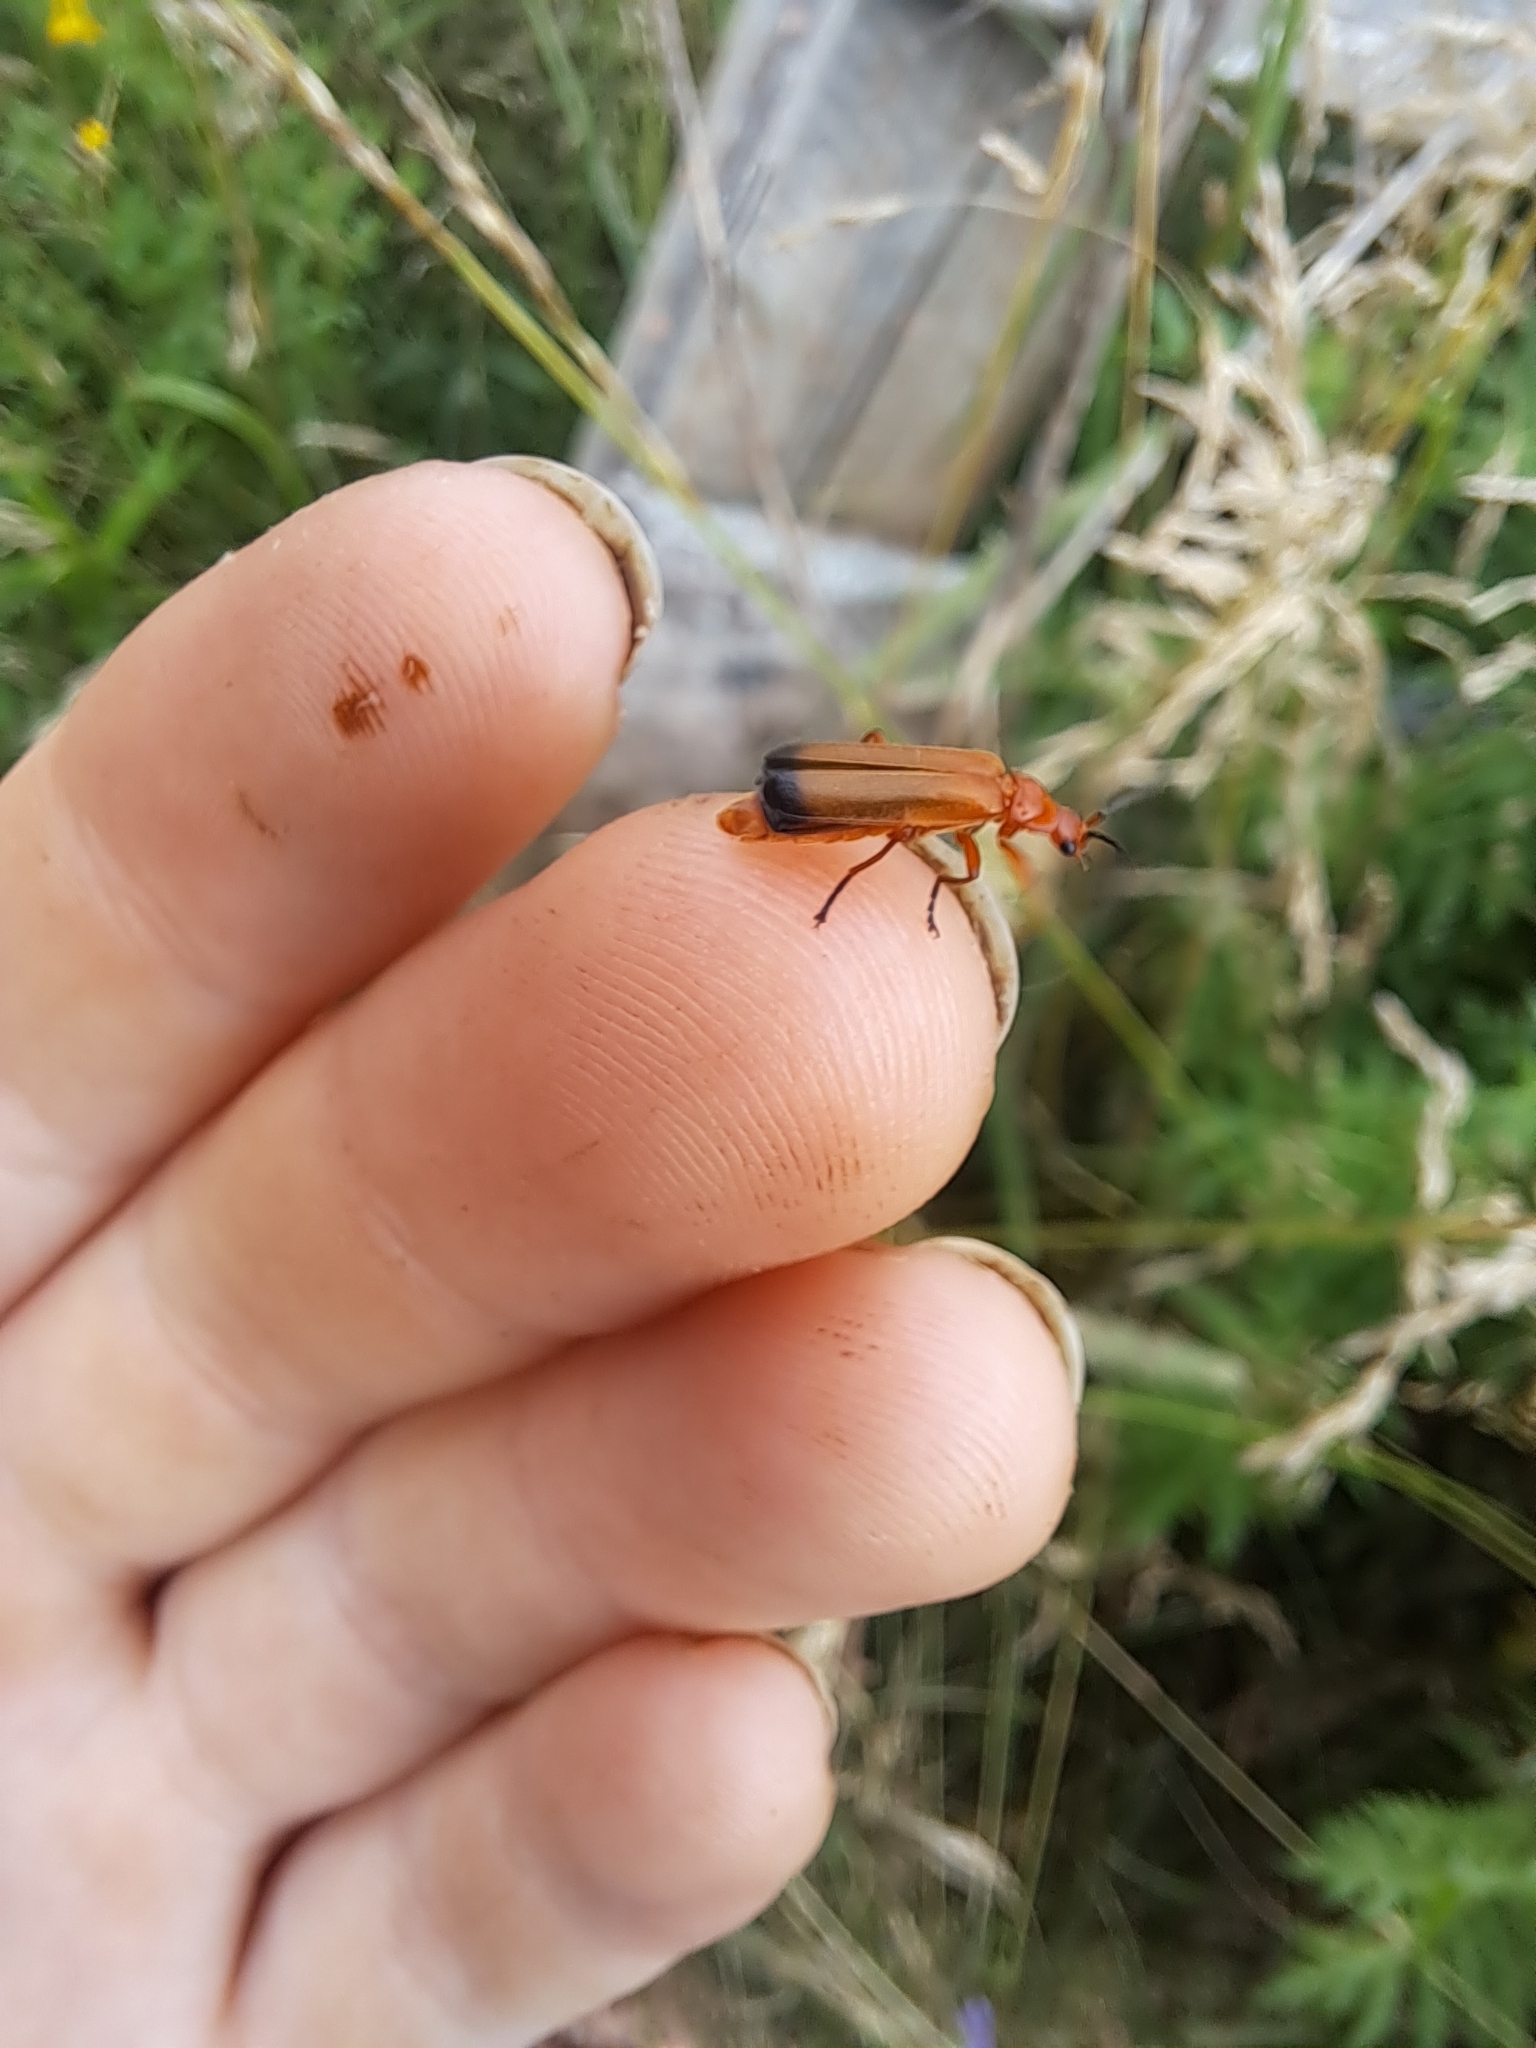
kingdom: Animalia
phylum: Arthropoda
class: Insecta
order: Coleoptera
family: Cantharidae
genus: Rhagonycha
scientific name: Rhagonycha fulva
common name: Common red soldier beetle
